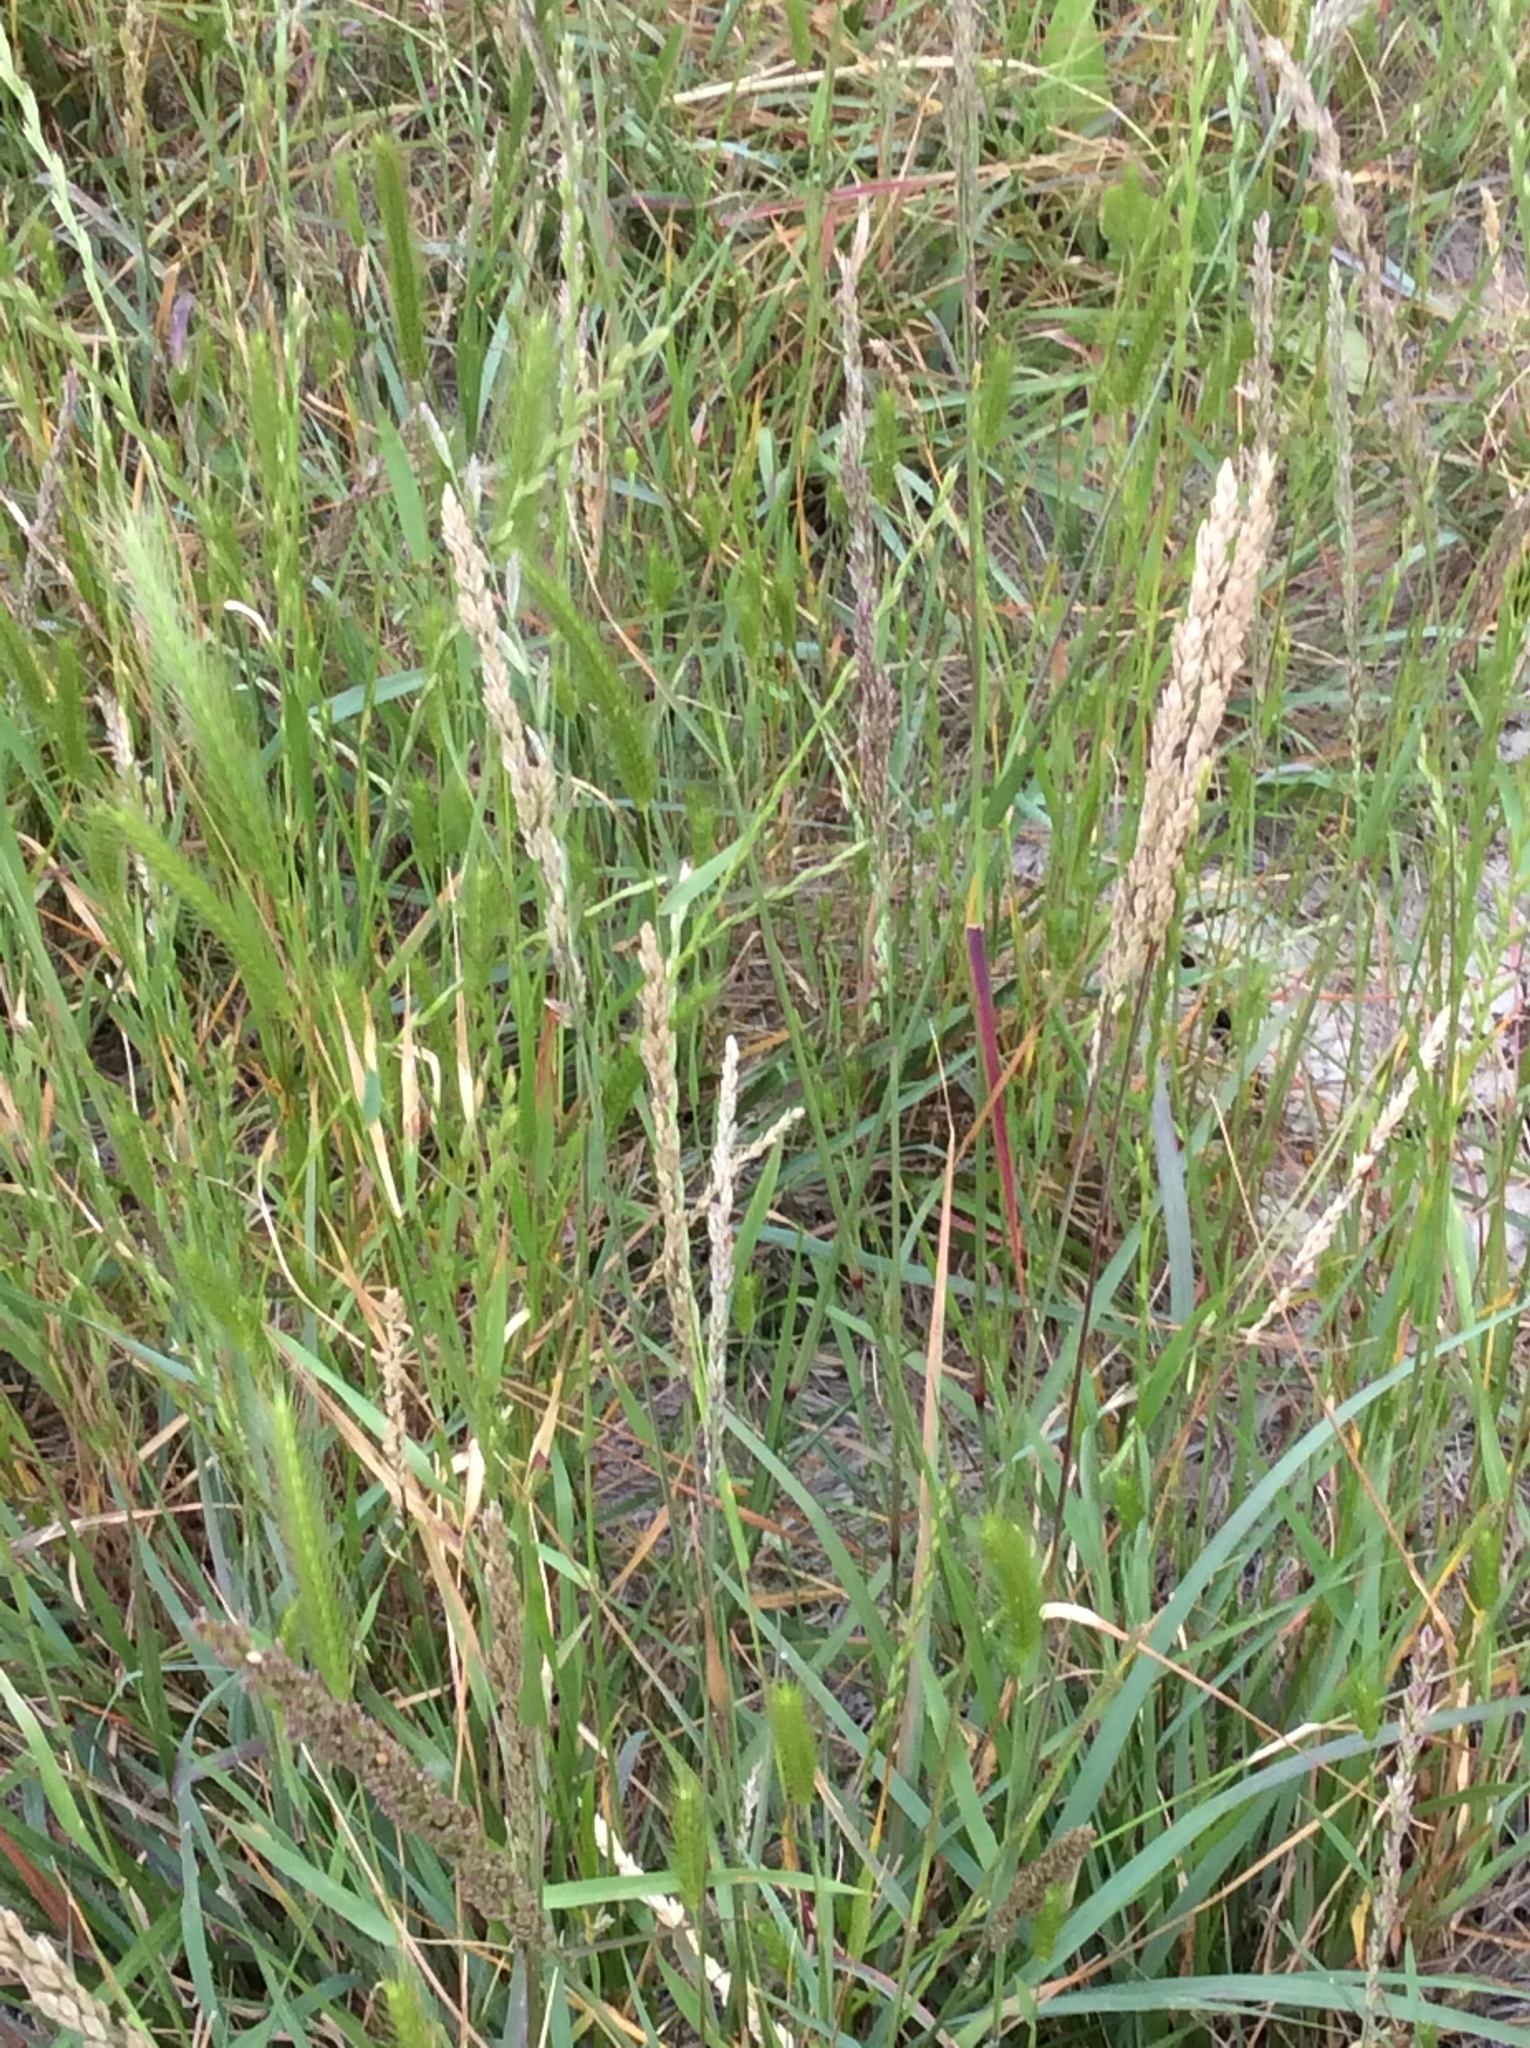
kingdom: Plantae
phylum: Tracheophyta
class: Liliopsida
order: Poales
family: Poaceae
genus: Tridens
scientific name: Tridens albescens
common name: White tridens
